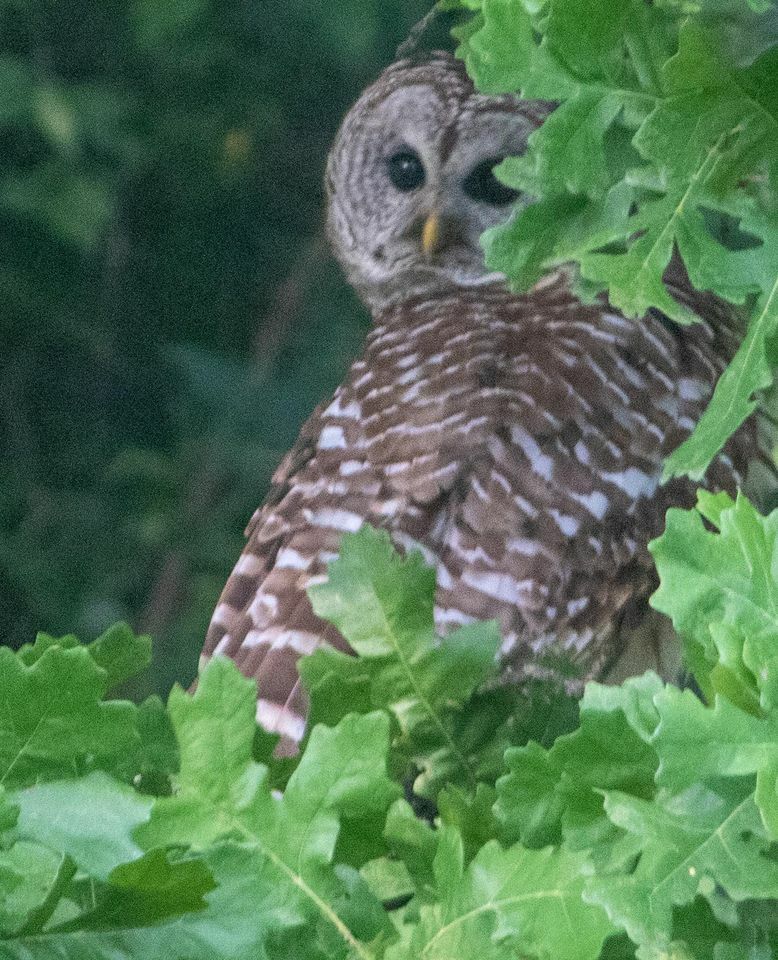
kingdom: Animalia
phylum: Chordata
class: Aves
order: Strigiformes
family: Strigidae
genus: Strix
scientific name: Strix varia
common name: Barred owl
